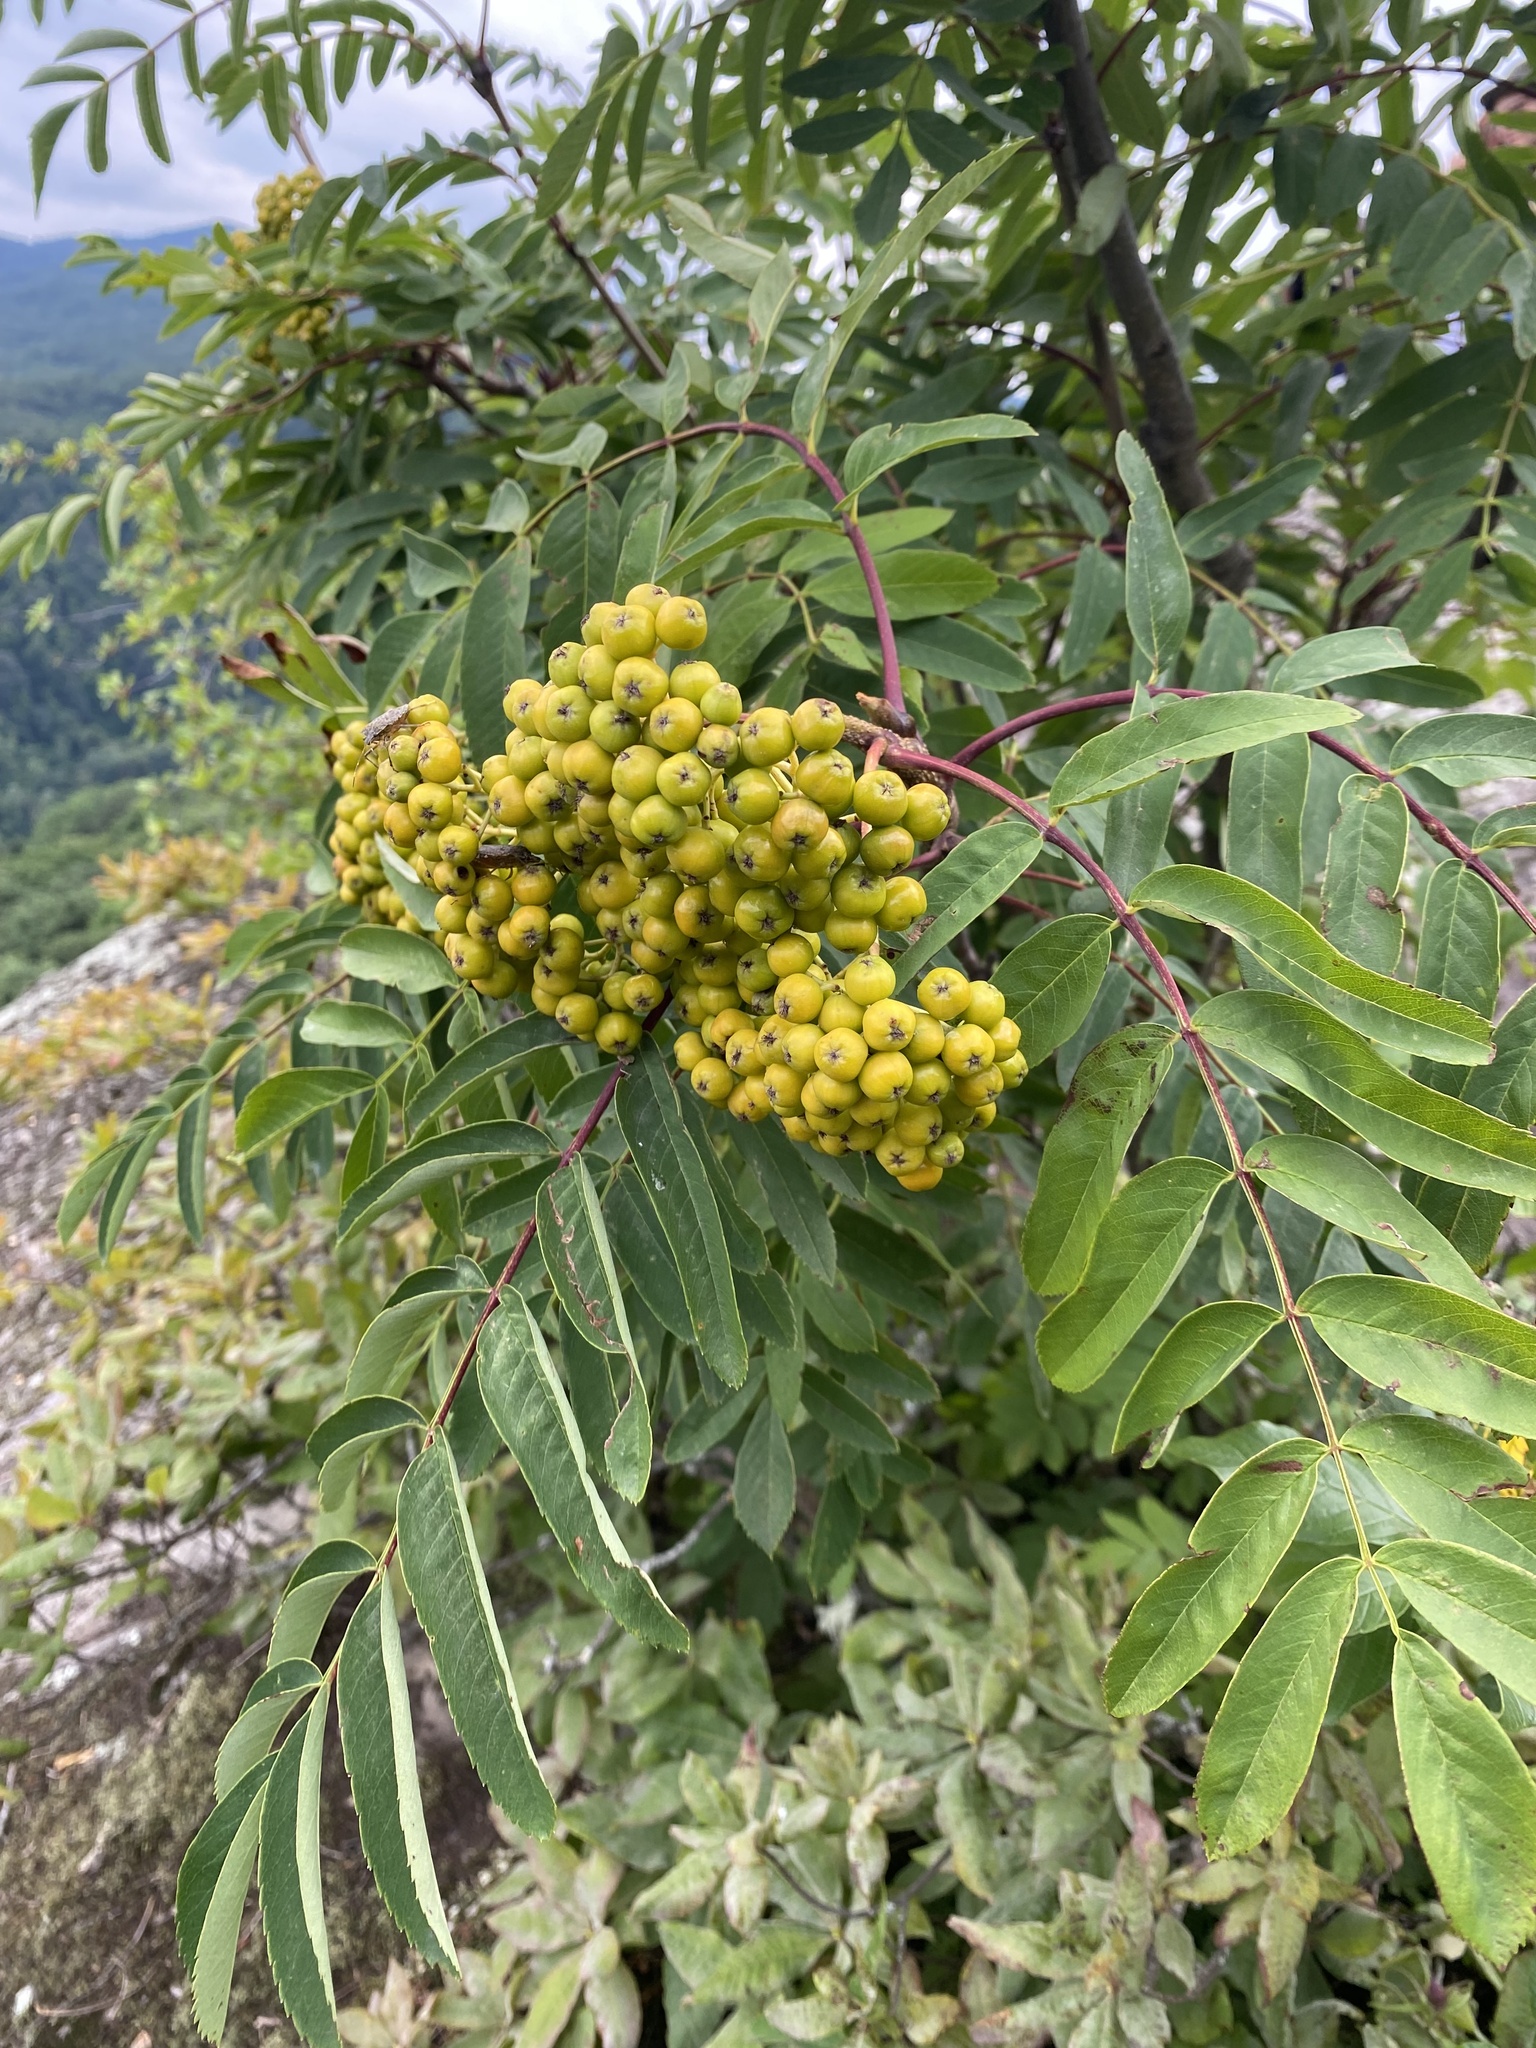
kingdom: Plantae
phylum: Tracheophyta
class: Magnoliopsida
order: Rosales
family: Rosaceae
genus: Sorbus
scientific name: Sorbus aucuparia
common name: Rowan
